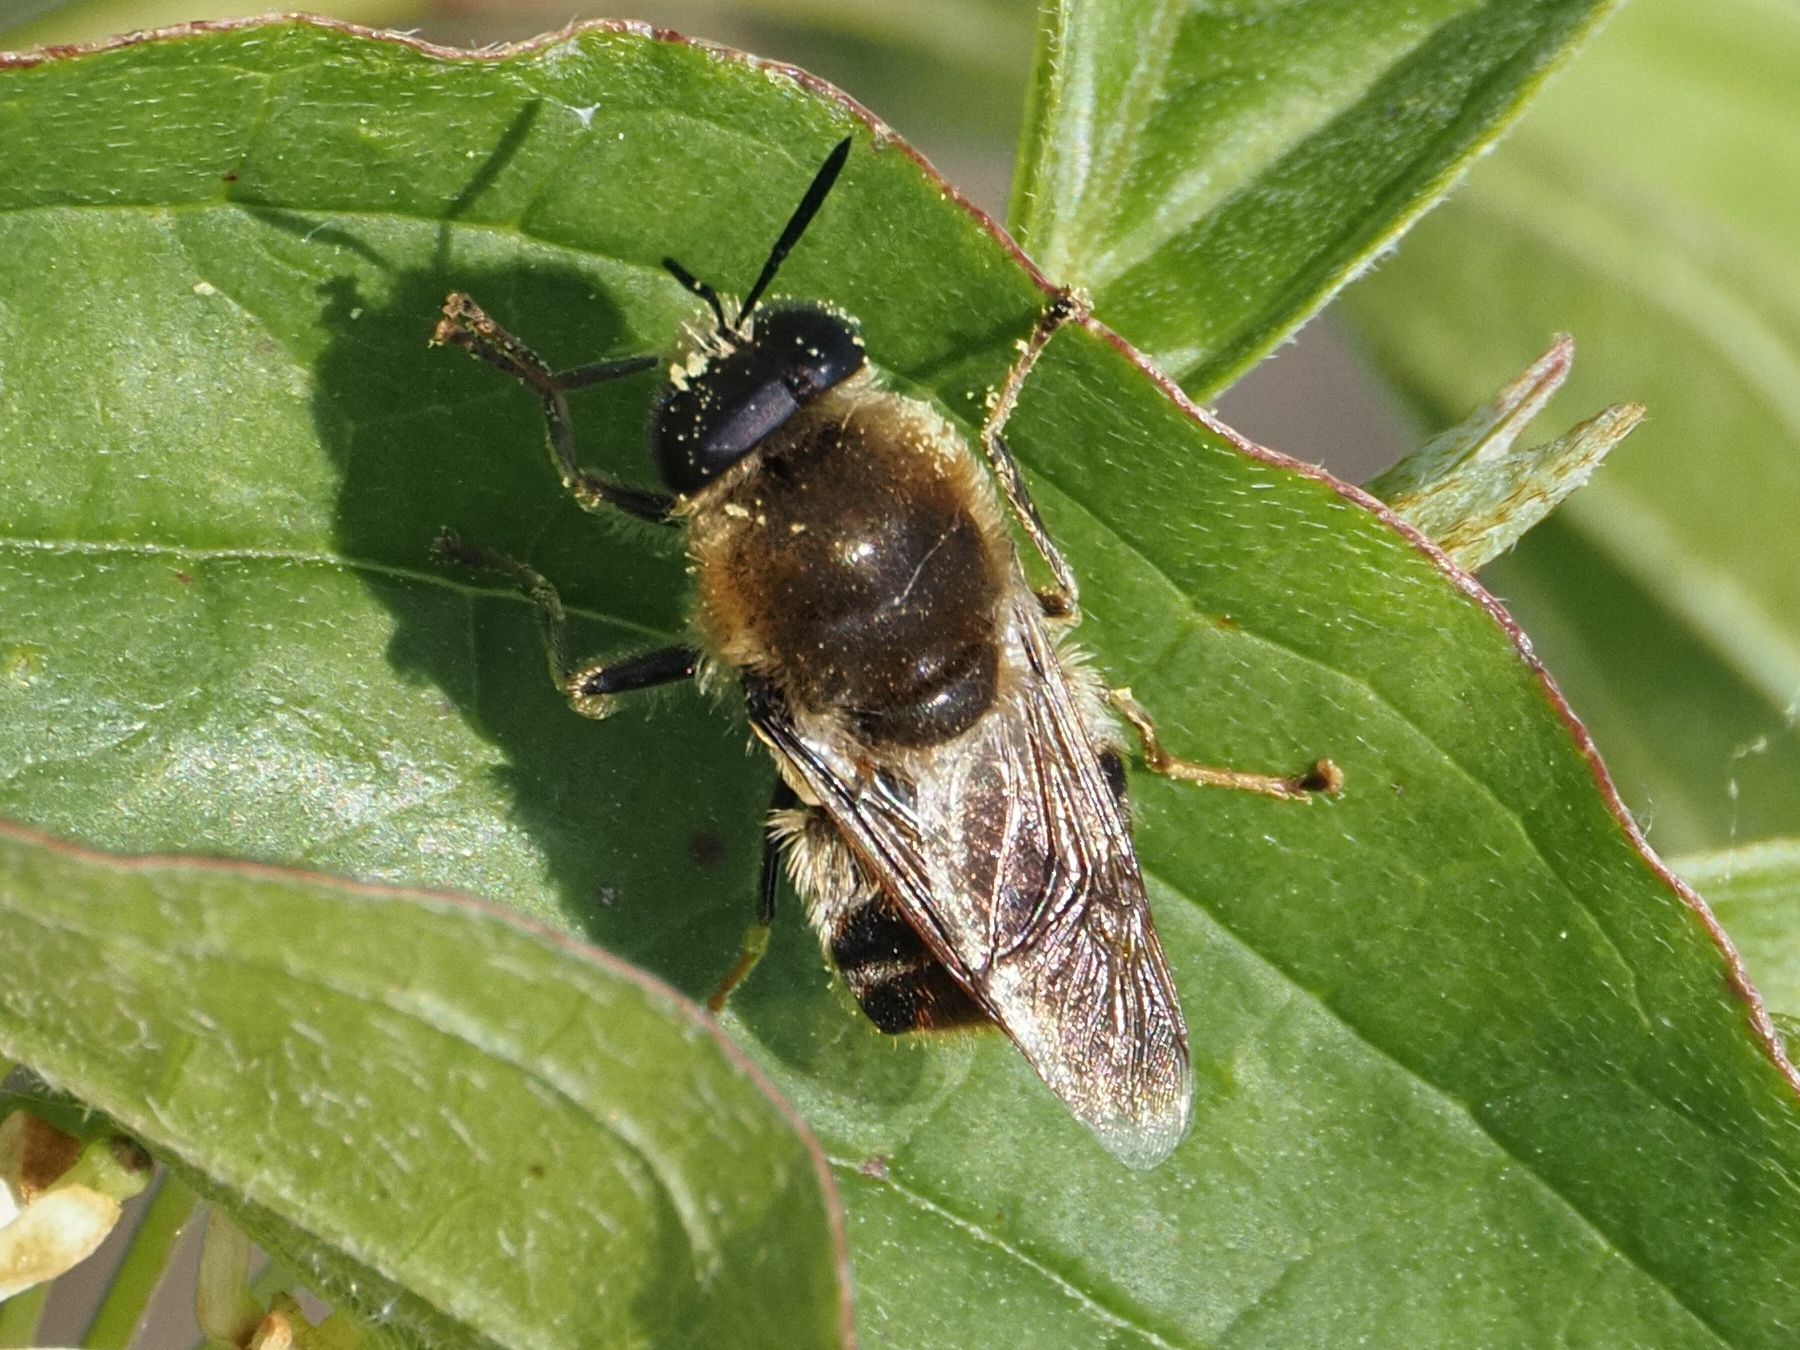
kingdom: Animalia
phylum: Arthropoda
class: Insecta
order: Diptera
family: Stratiomyidae
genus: Stratiomys
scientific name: Stratiomys longicornis
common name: Long-horned general
